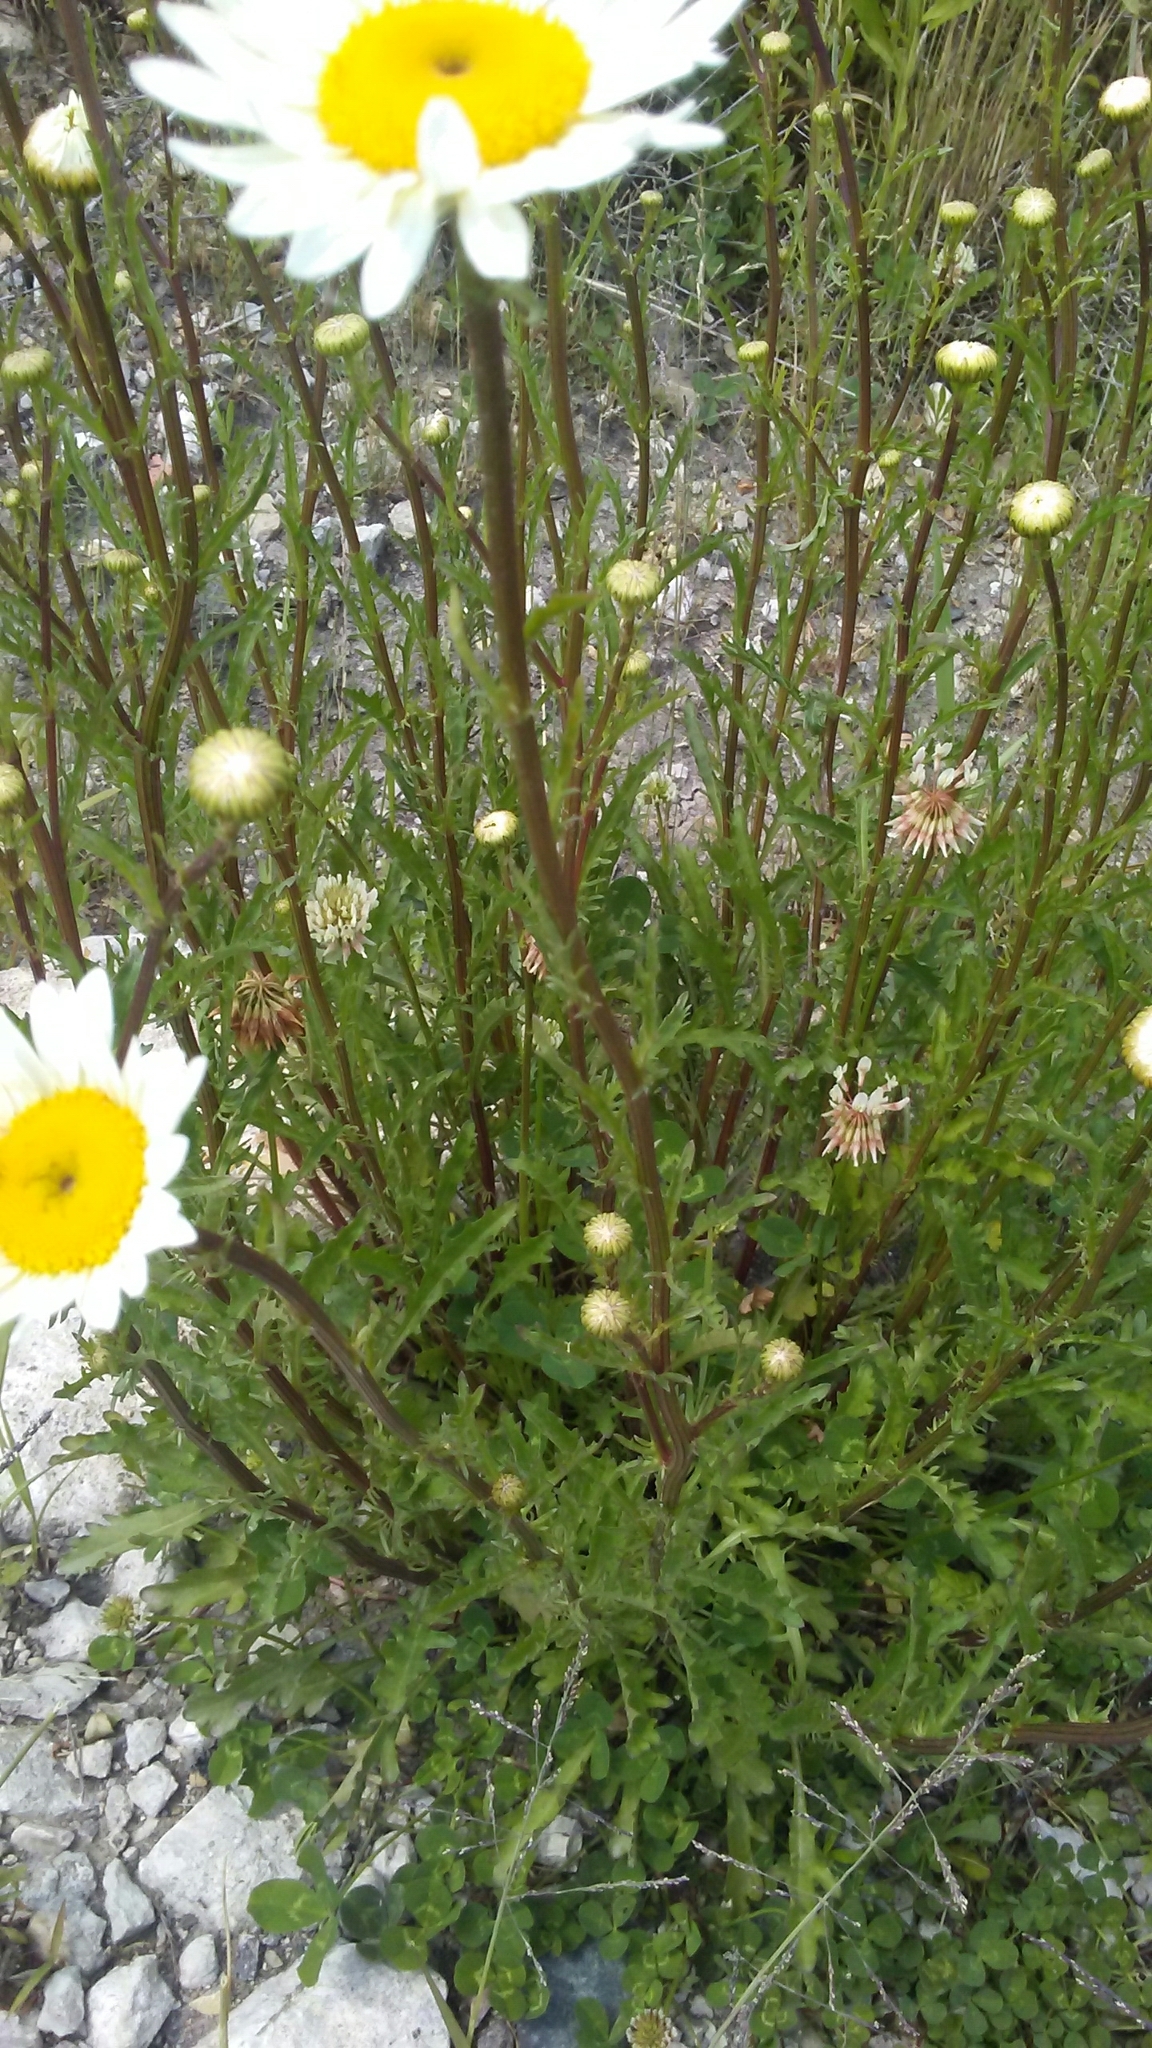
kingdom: Plantae
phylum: Tracheophyta
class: Magnoliopsida
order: Asterales
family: Asteraceae
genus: Leucanthemum
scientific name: Leucanthemum vulgare
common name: Oxeye daisy
